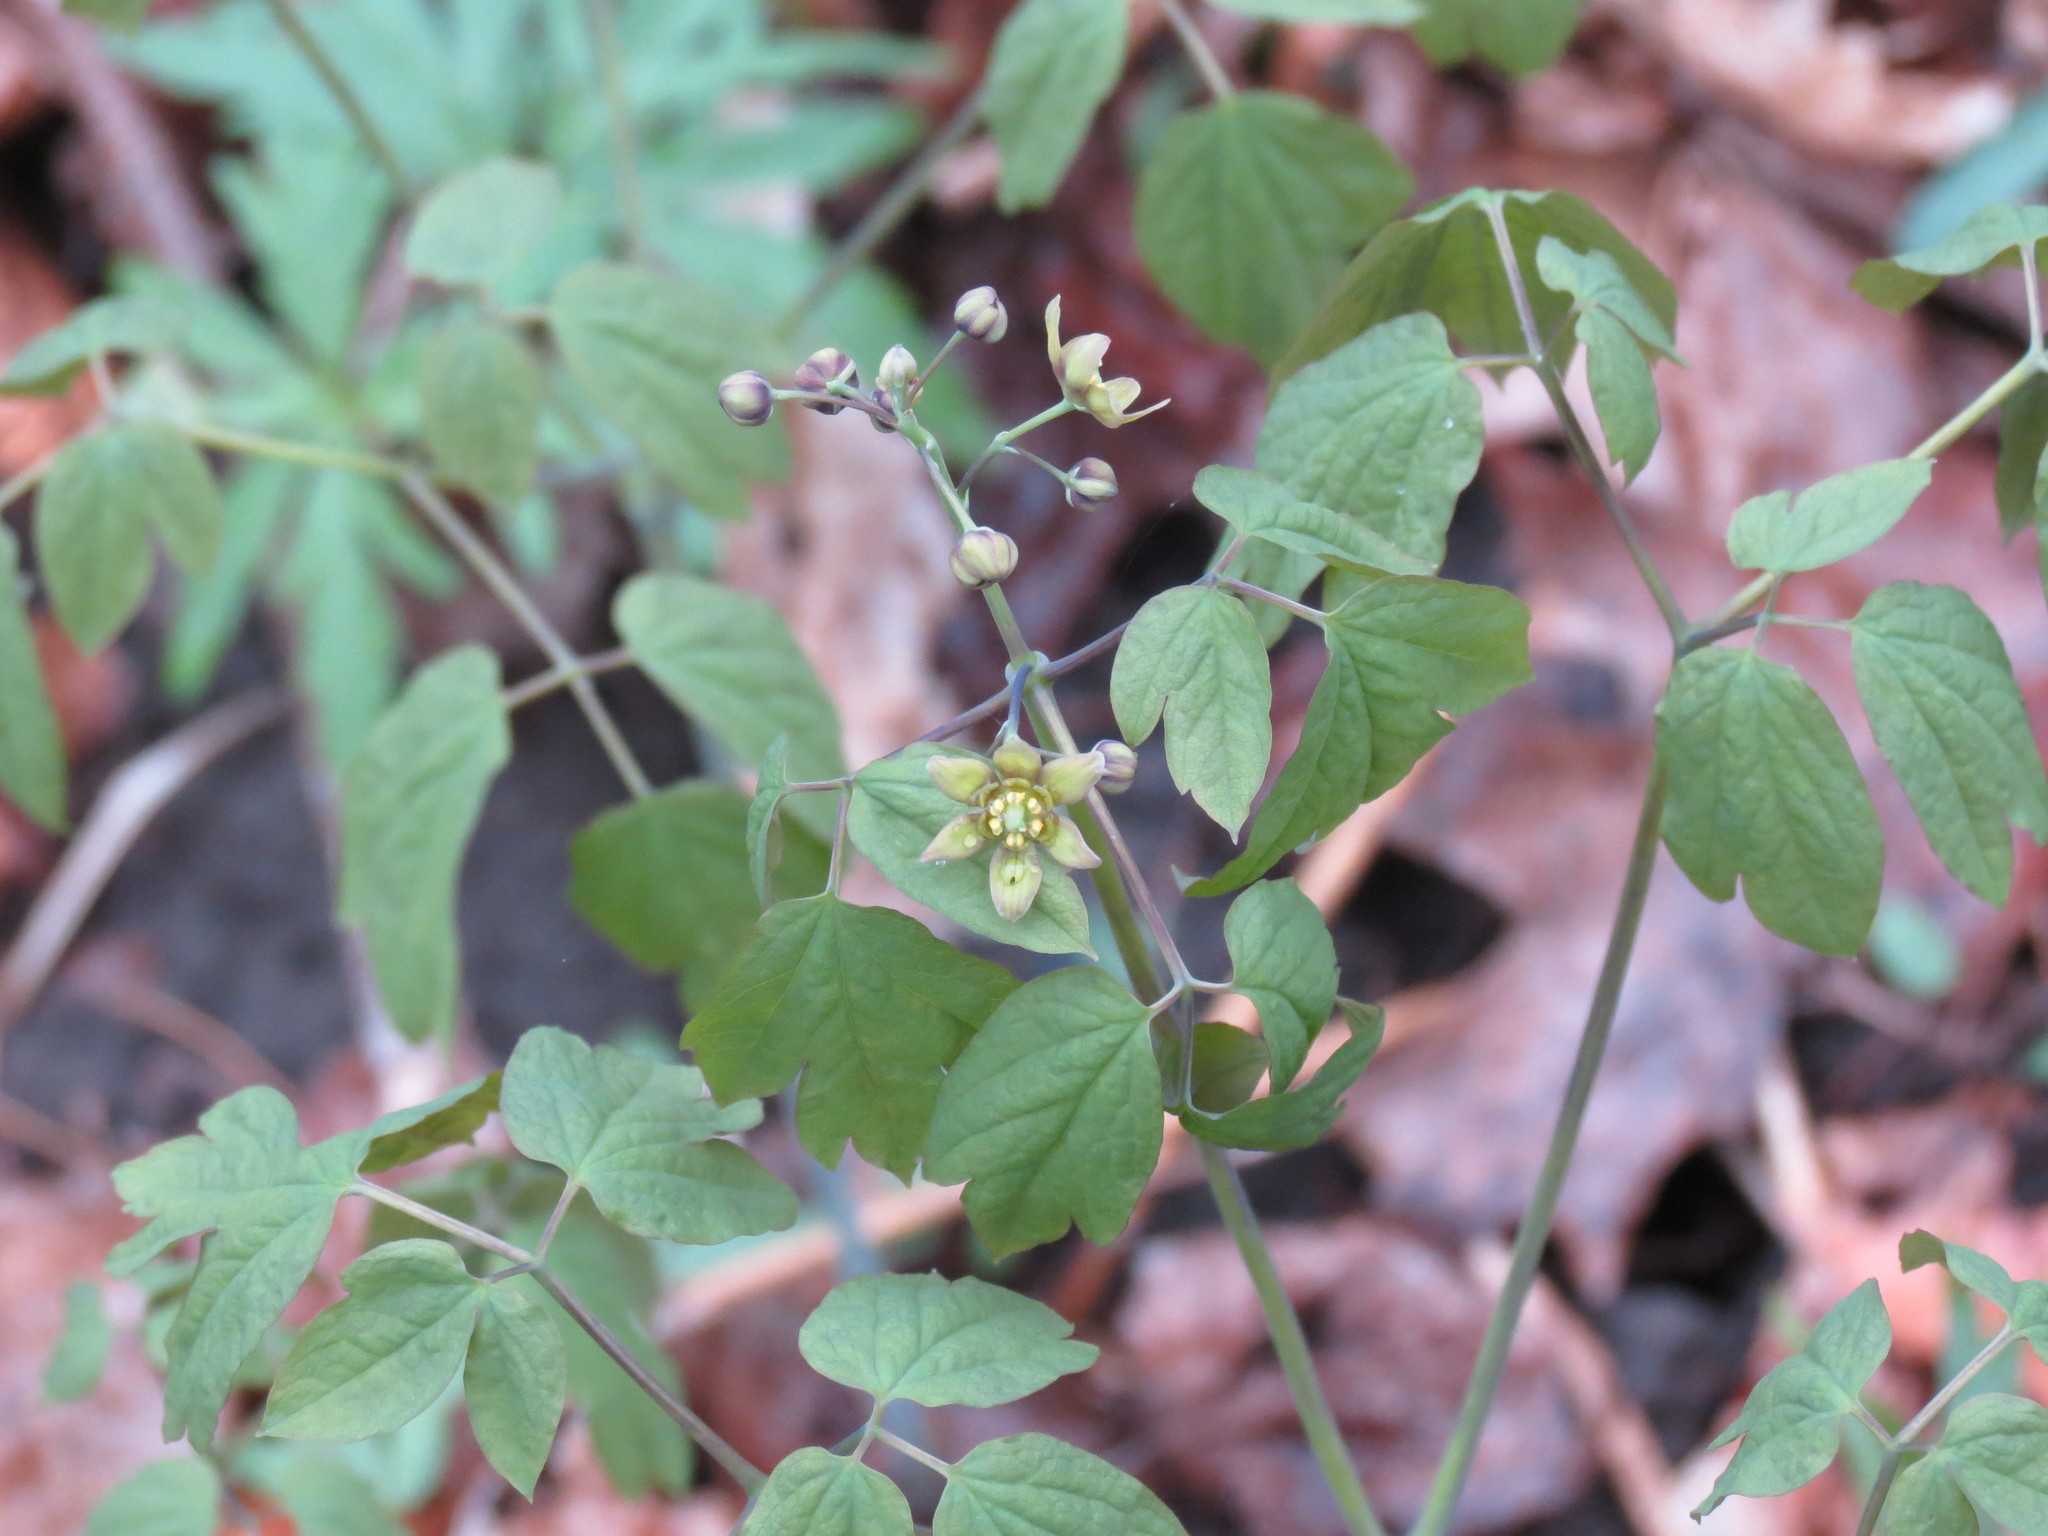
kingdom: Plantae
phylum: Tracheophyta
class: Magnoliopsida
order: Ranunculales
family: Berberidaceae
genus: Caulophyllum
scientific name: Caulophyllum thalictroides
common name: Blue cohosh
